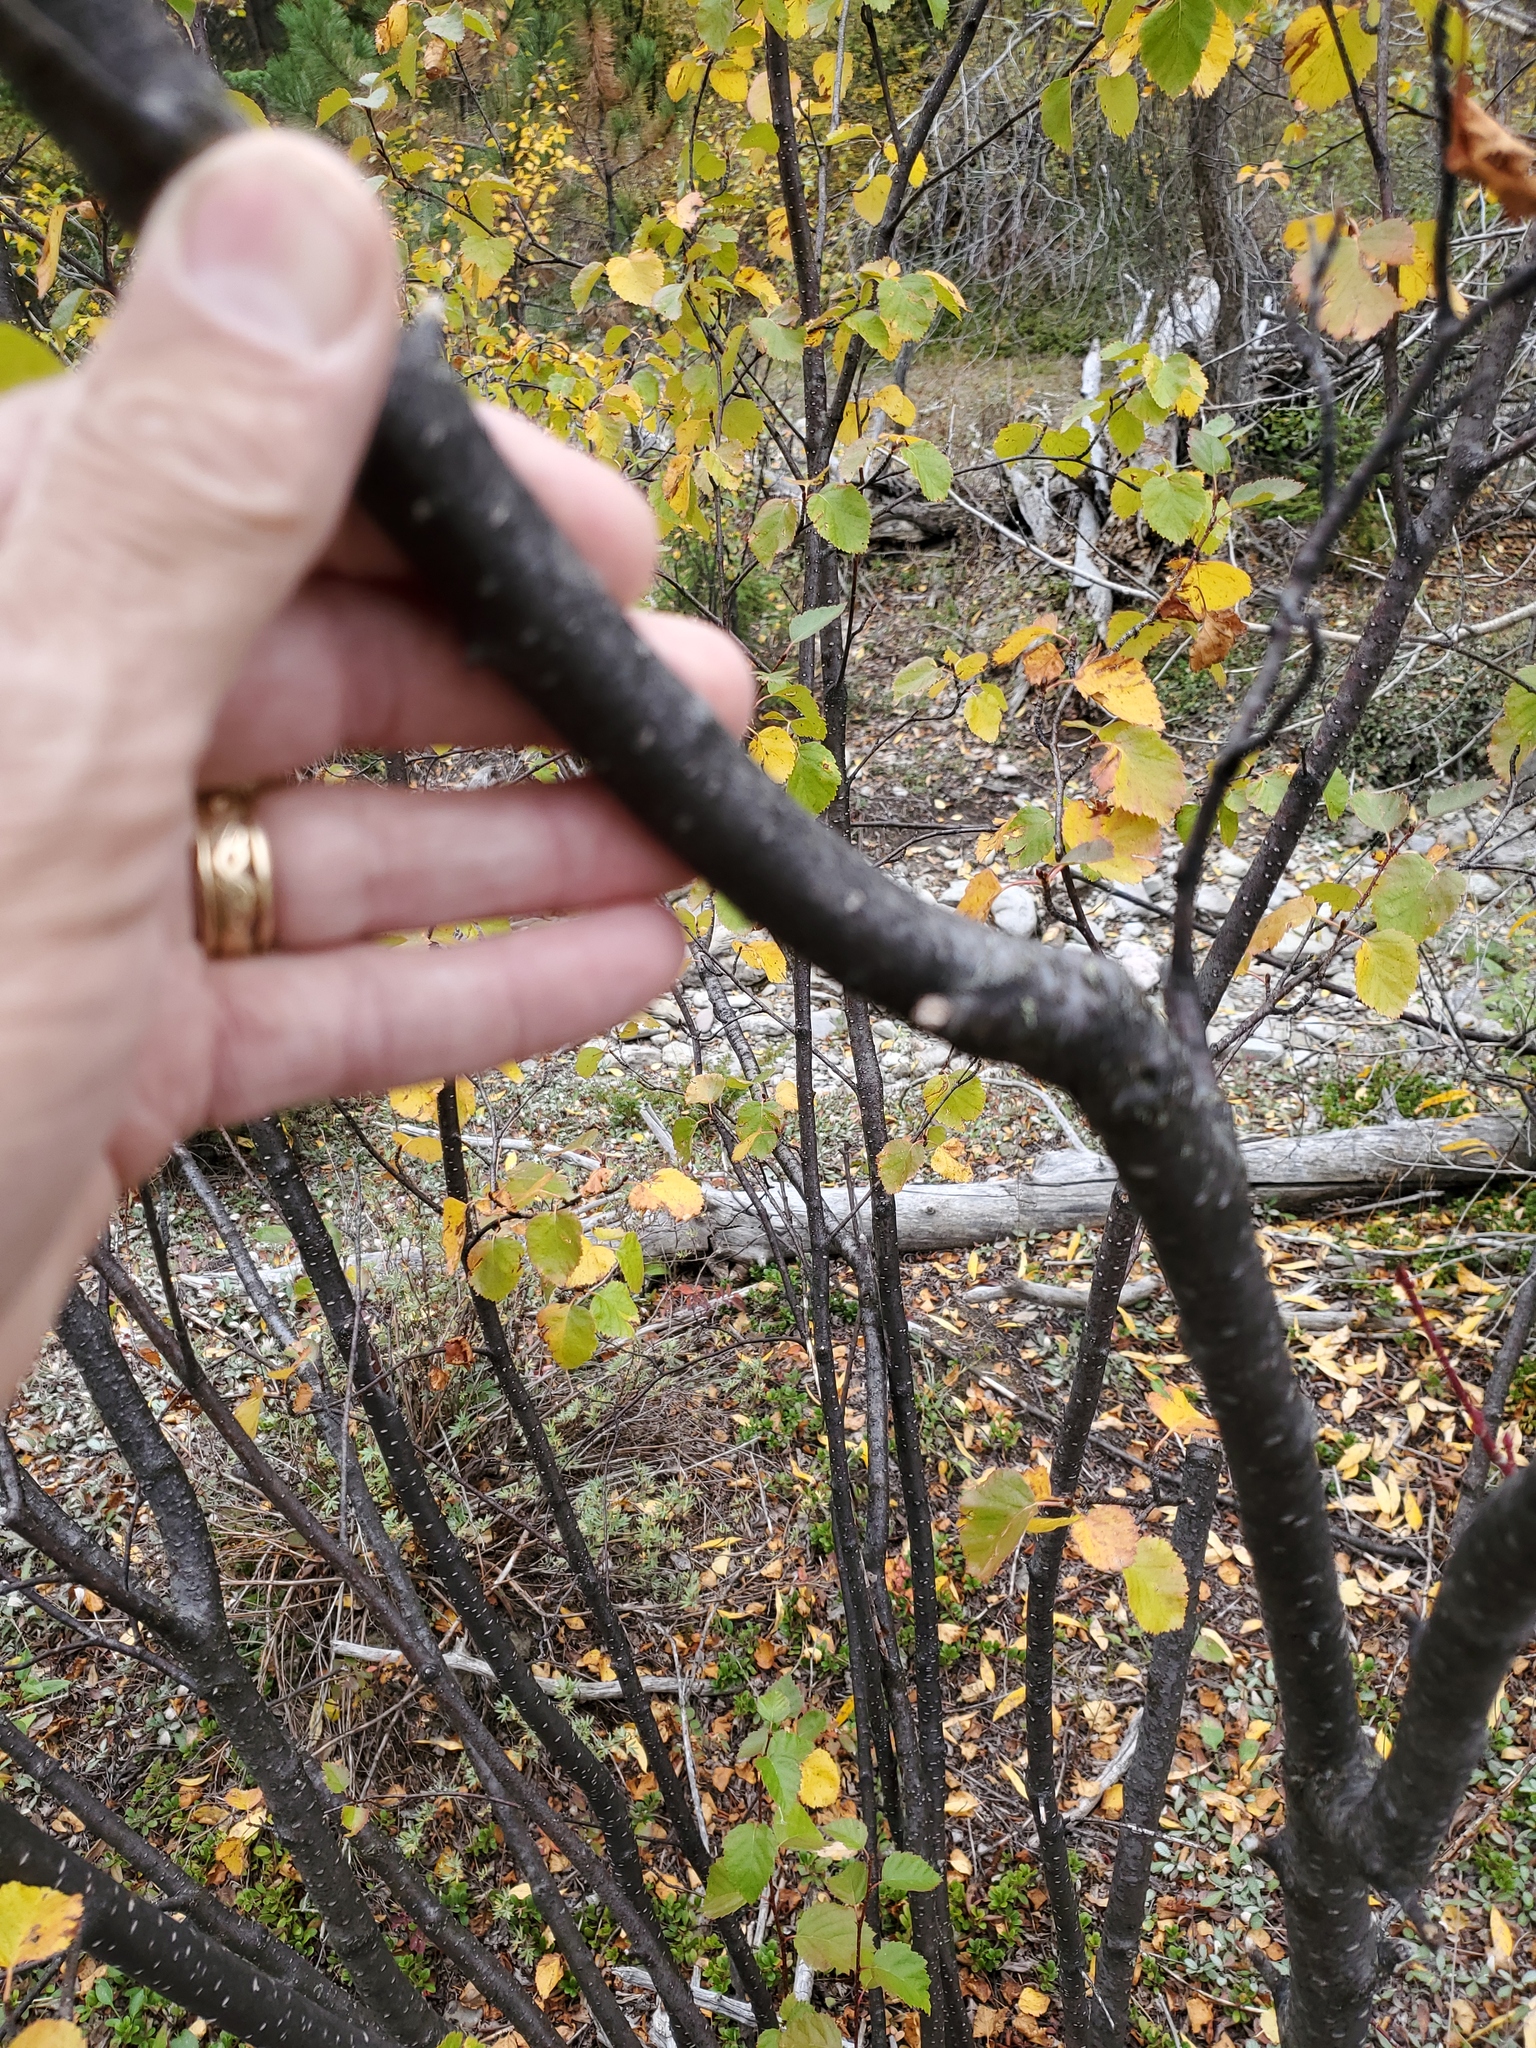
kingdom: Plantae
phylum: Tracheophyta
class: Magnoliopsida
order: Fagales
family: Betulaceae
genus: Betula
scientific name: Betula occidentalis
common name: River birch
